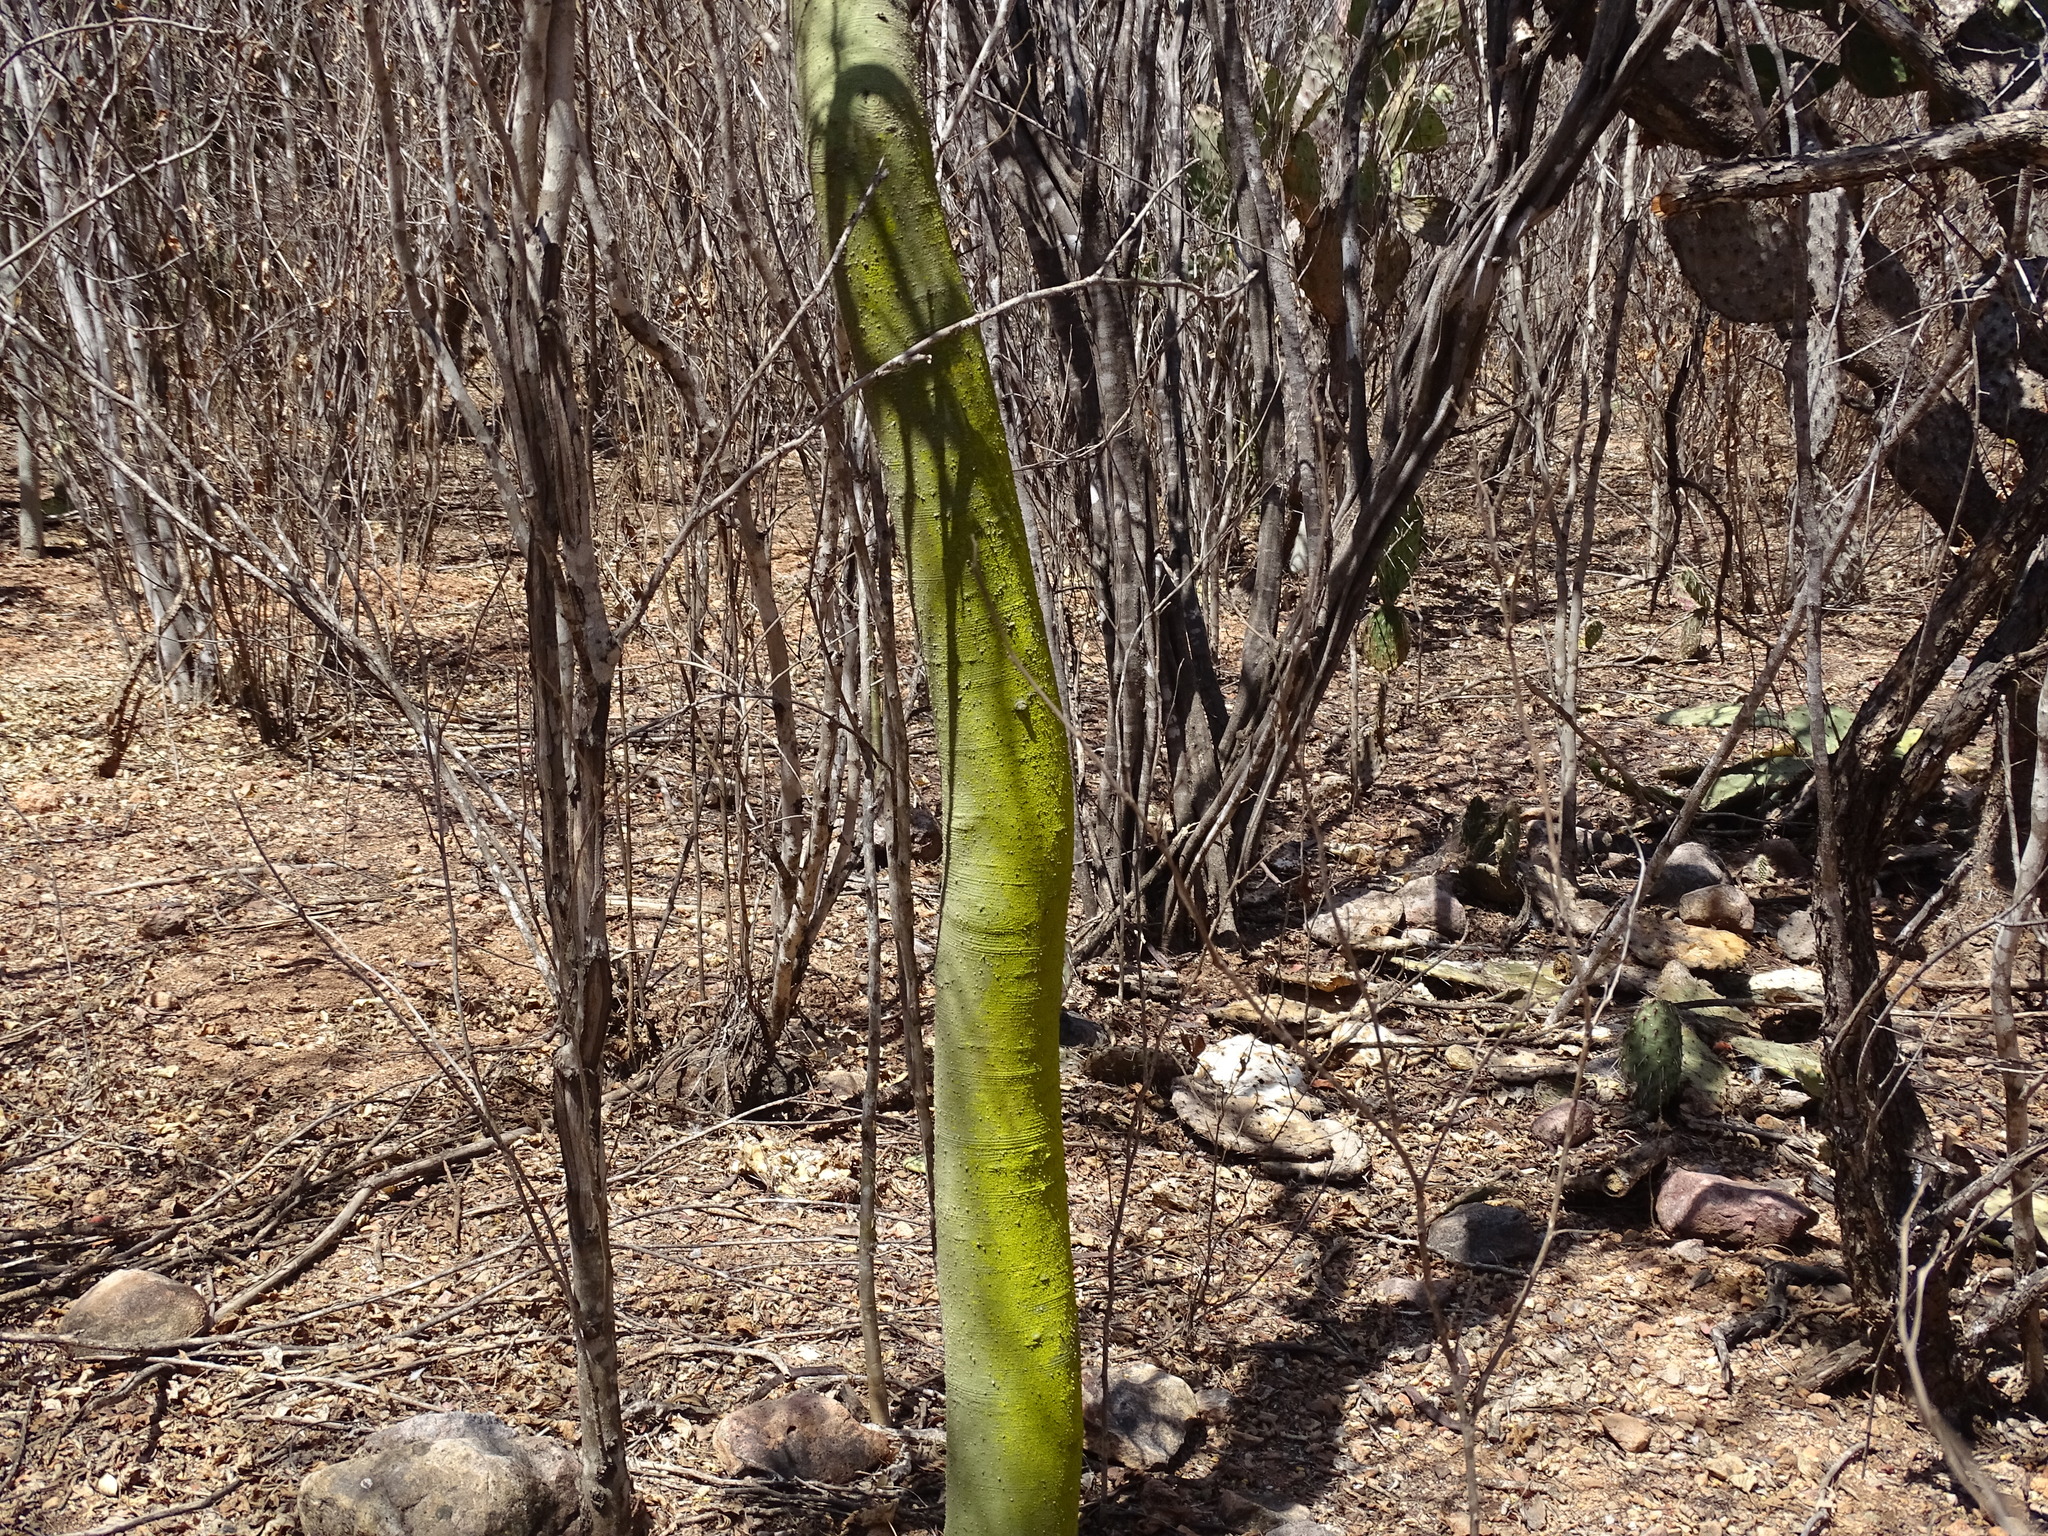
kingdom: Plantae
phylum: Tracheophyta
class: Magnoliopsida
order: Fabales
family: Fabaceae
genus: Parkinsonia
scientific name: Parkinsonia praecox
